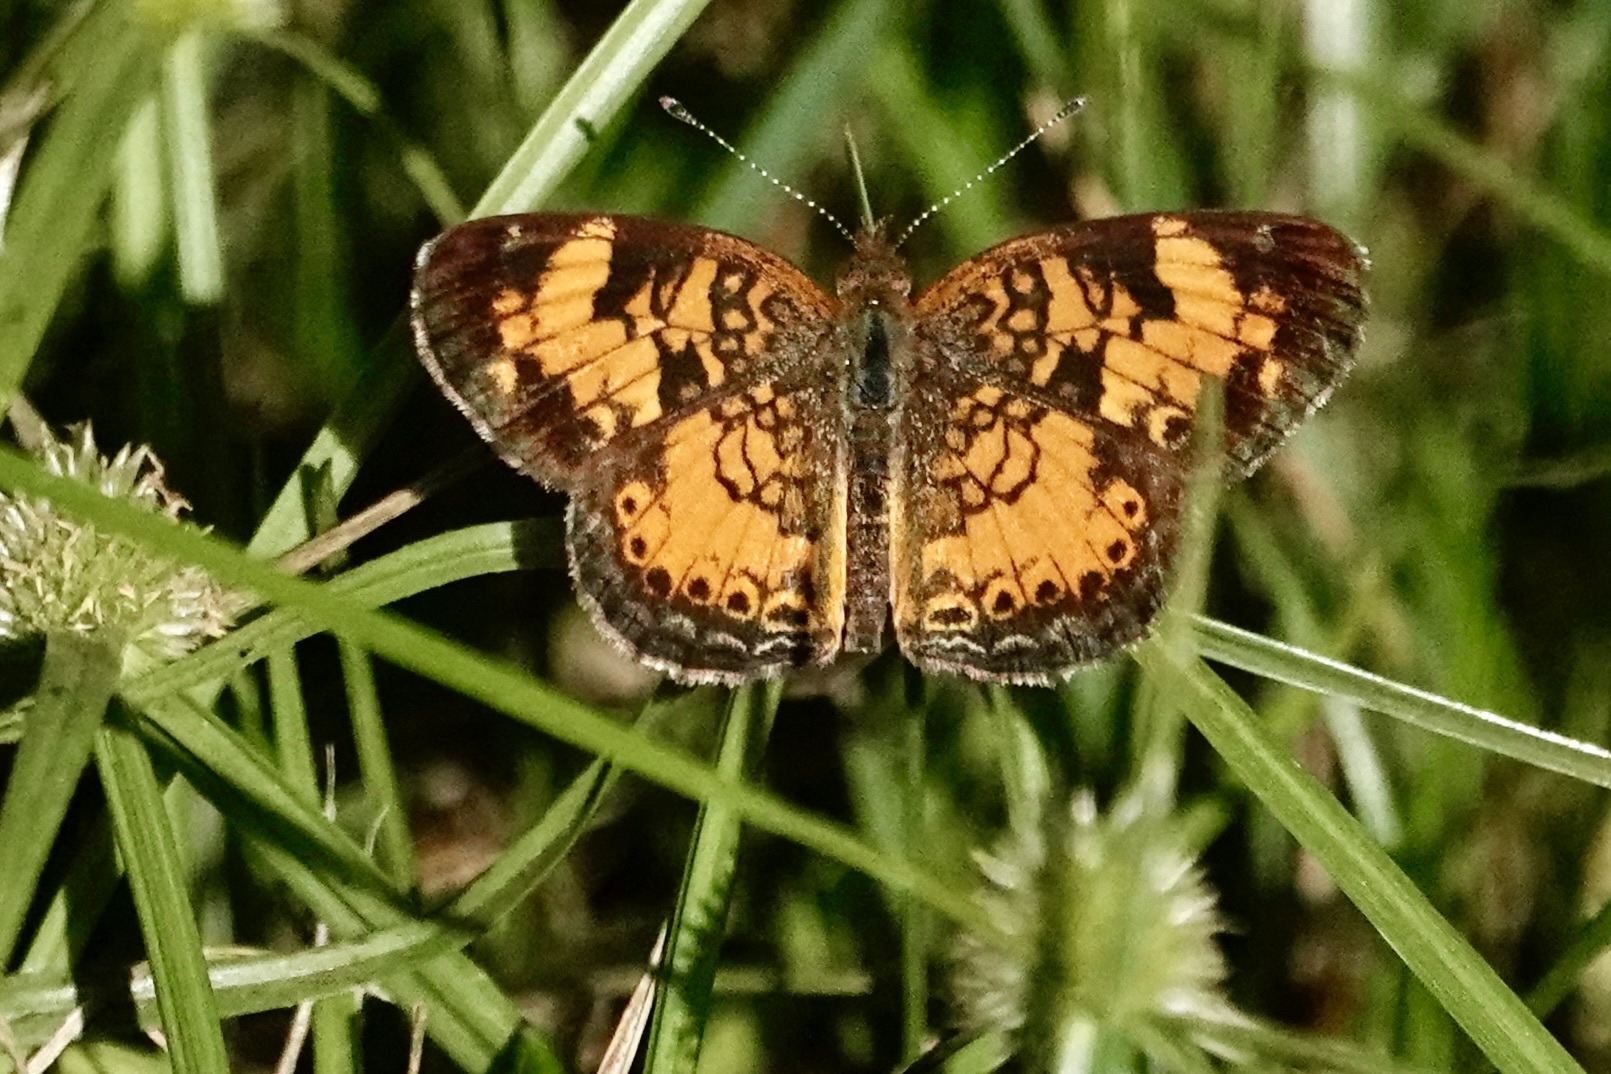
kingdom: Animalia
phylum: Arthropoda
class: Insecta
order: Lepidoptera
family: Nymphalidae
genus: Phyciodes
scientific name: Phyciodes tharos
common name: Pearl crescent
